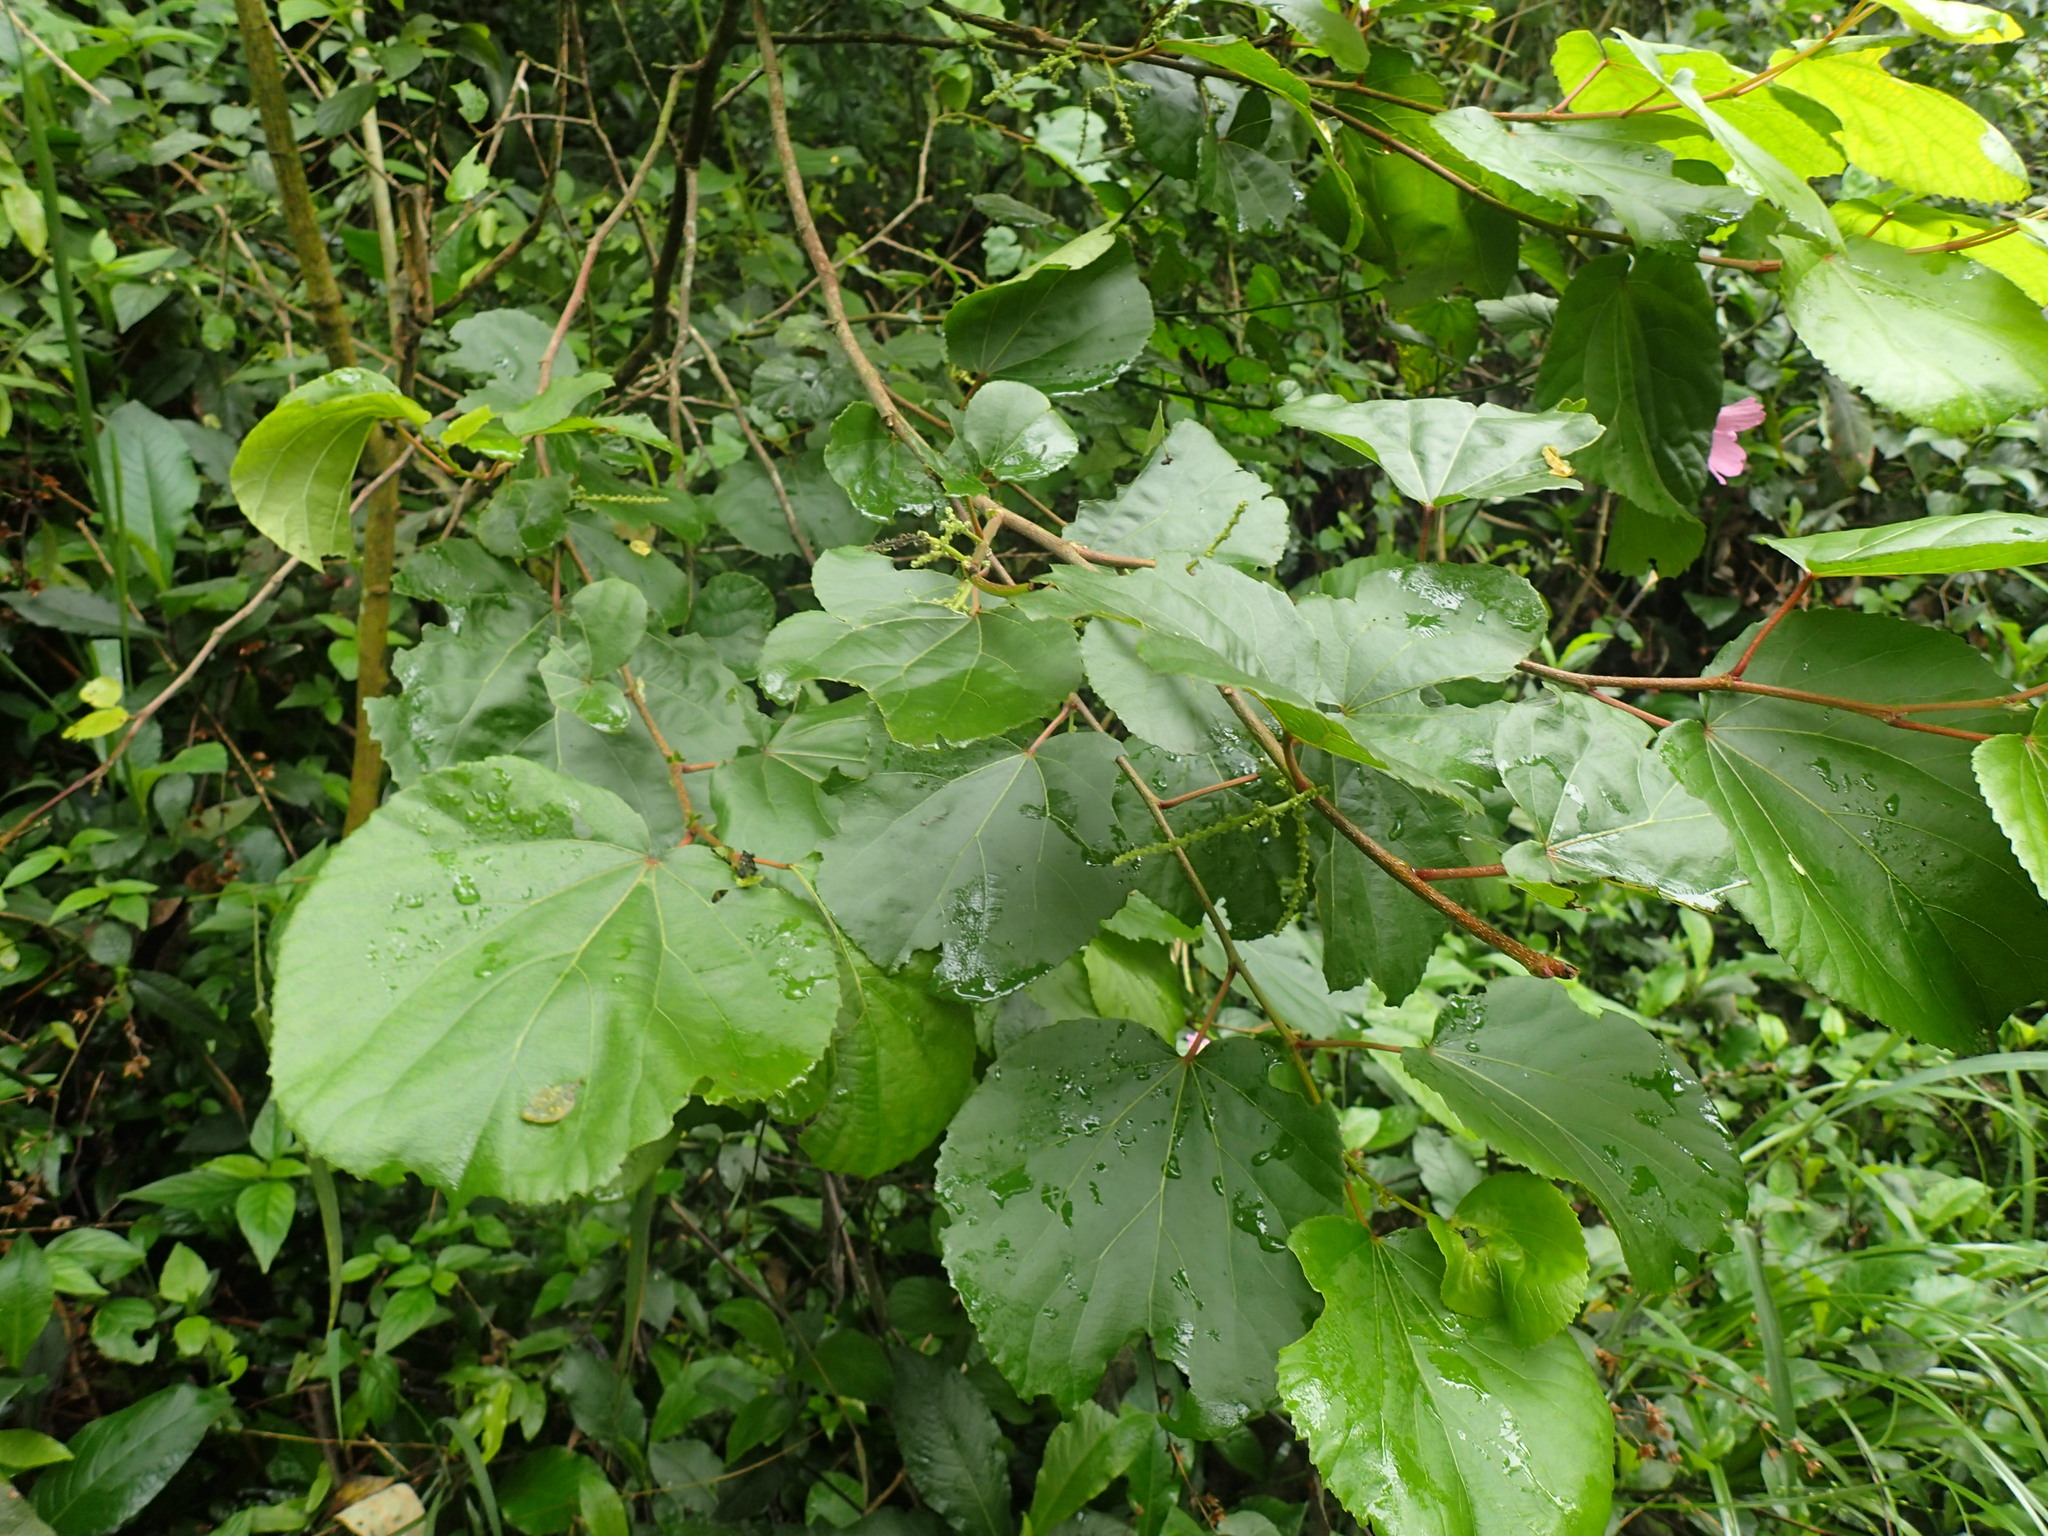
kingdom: Plantae
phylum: Tracheophyta
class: Magnoliopsida
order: Malpighiales
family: Salicaceae
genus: Trimeria
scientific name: Trimeria grandifolia
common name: Wild mulberry
